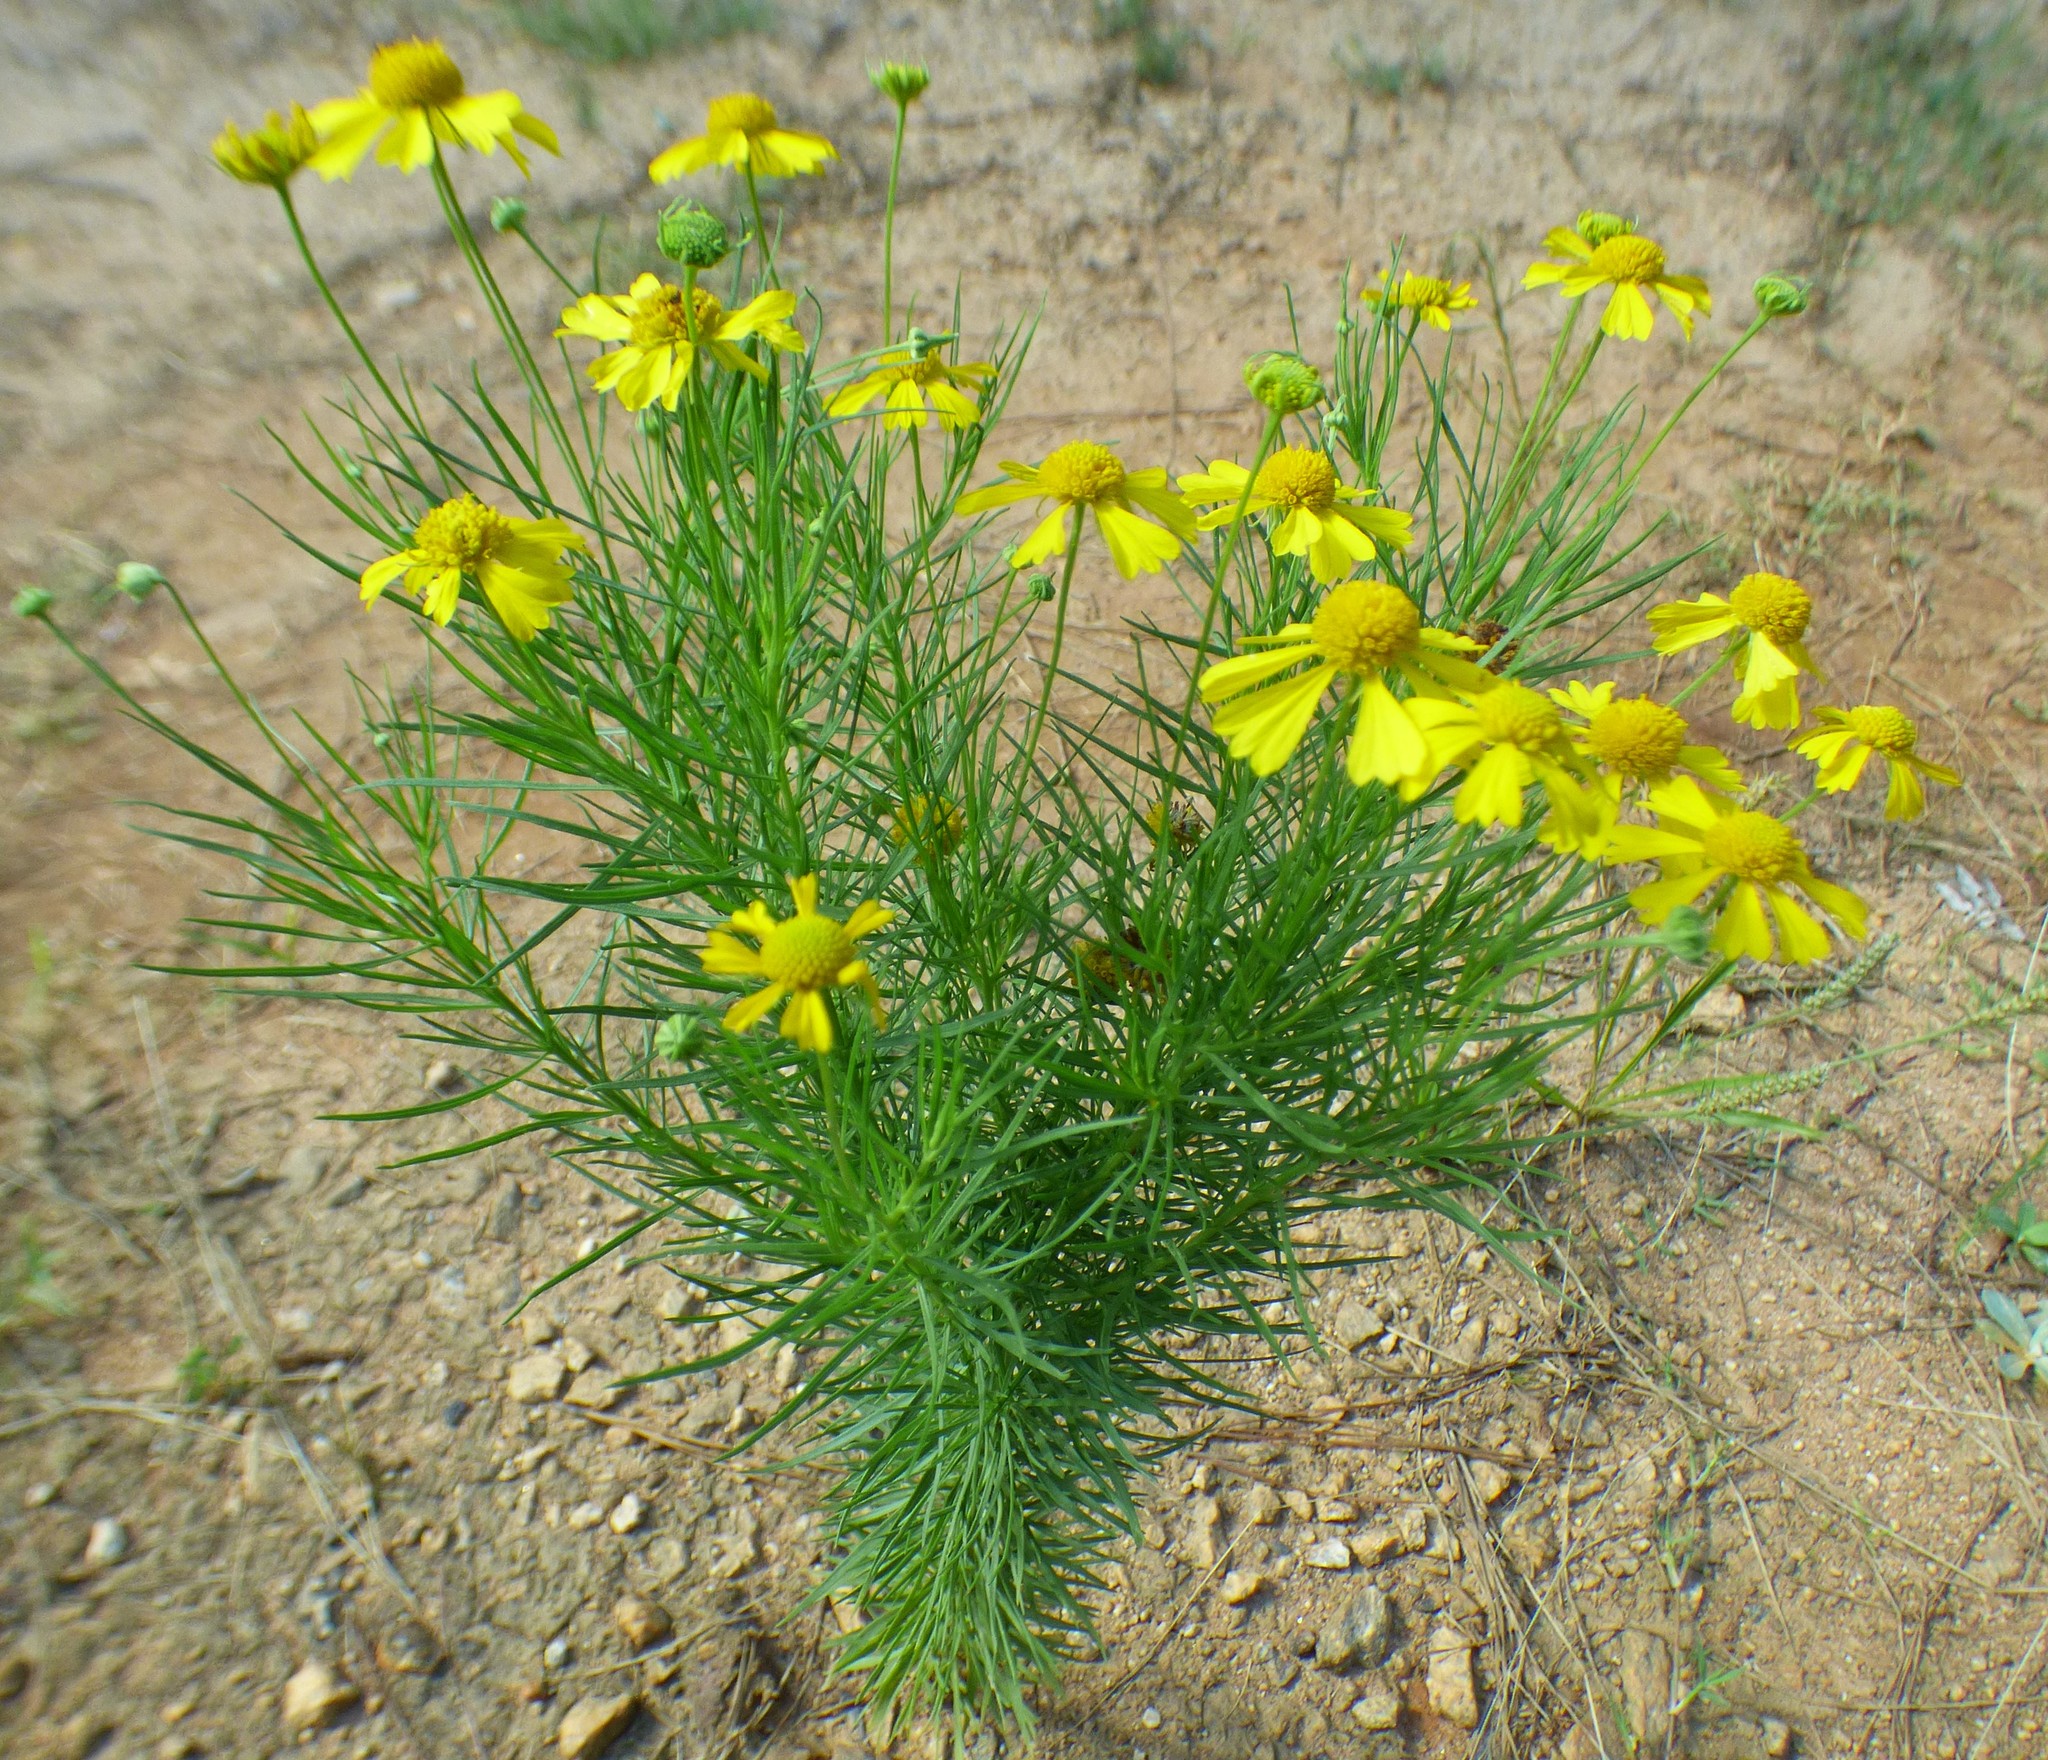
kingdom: Plantae
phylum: Tracheophyta
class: Magnoliopsida
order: Asterales
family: Asteraceae
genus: Helenium
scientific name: Helenium amarum
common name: Bitter sneezeweed
